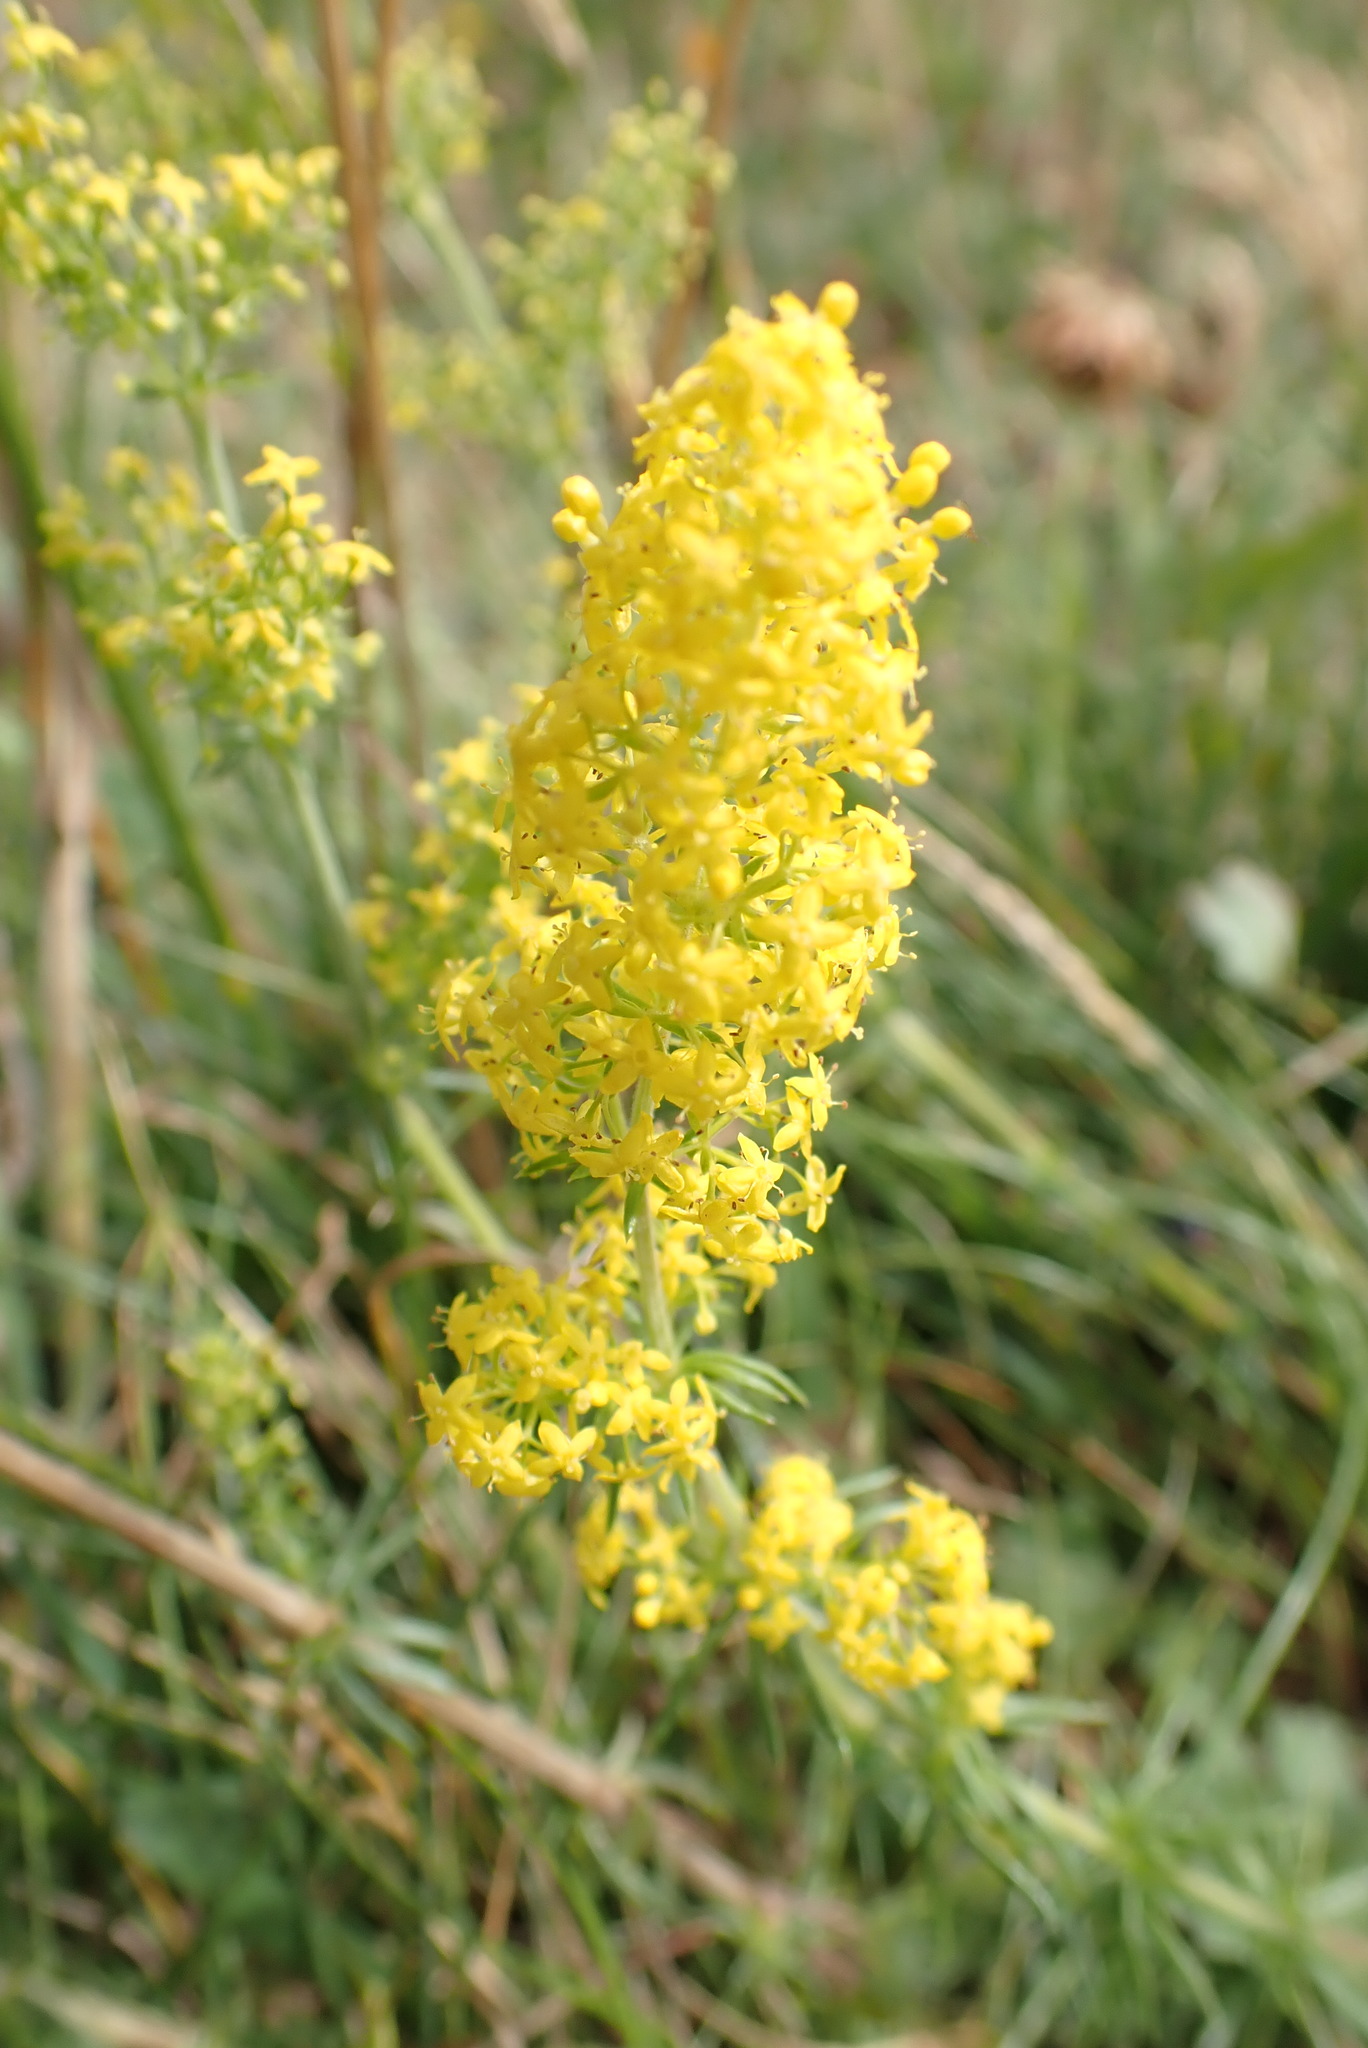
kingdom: Plantae
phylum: Tracheophyta
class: Magnoliopsida
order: Gentianales
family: Rubiaceae
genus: Galium
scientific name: Galium verum
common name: Lady's bedstraw
